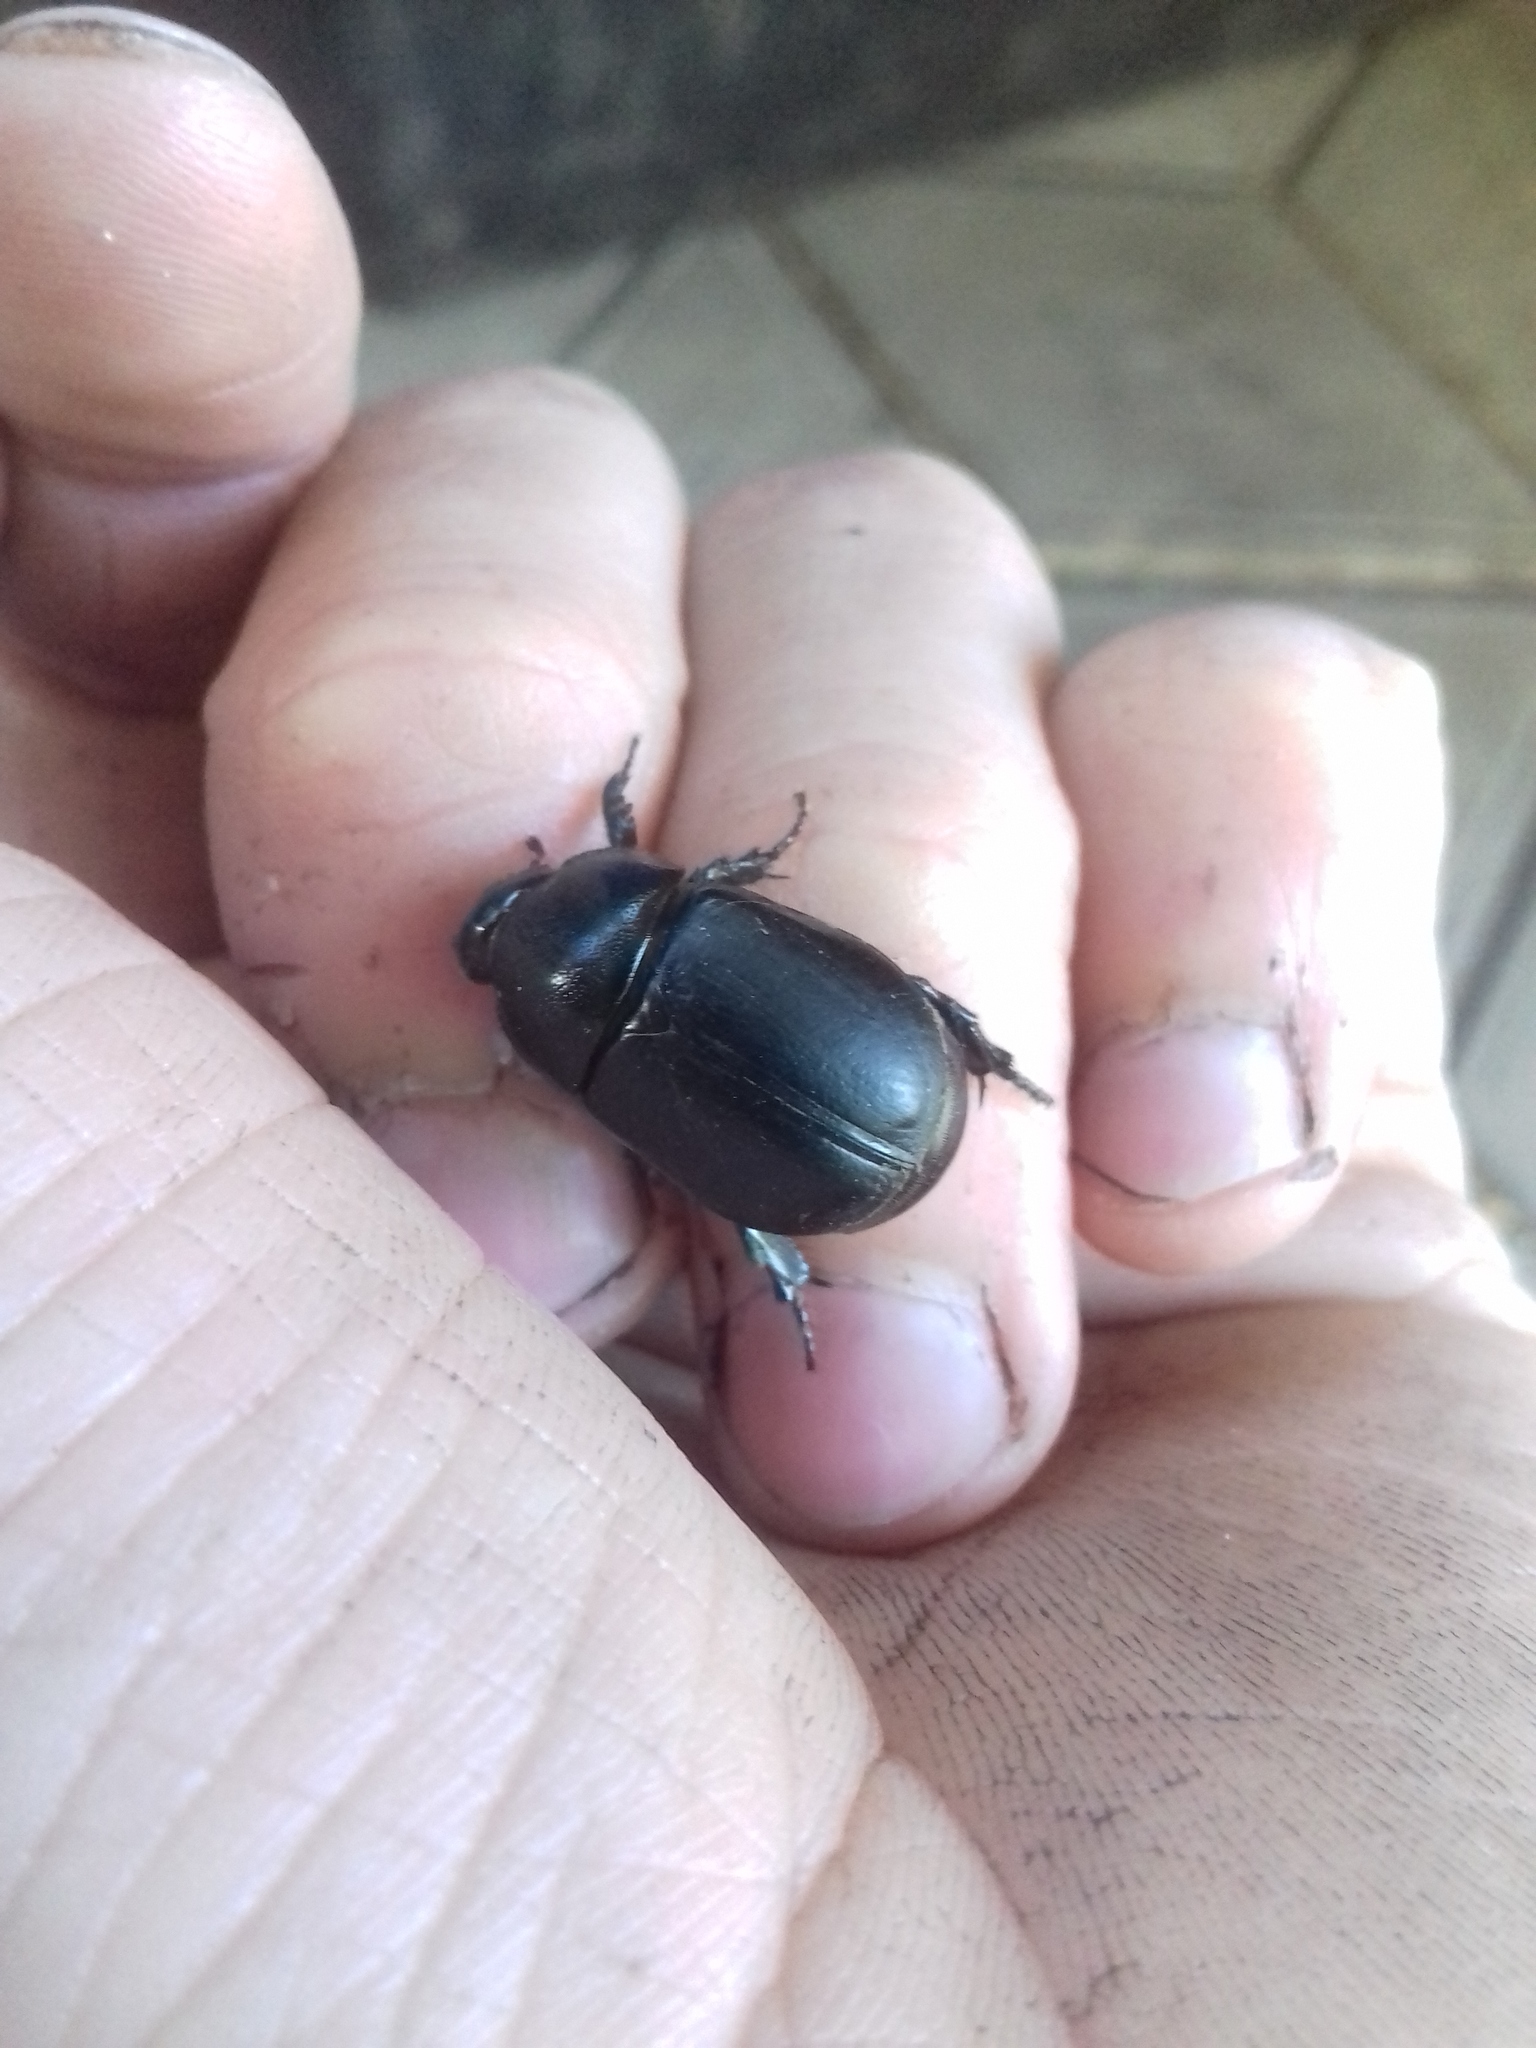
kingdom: Animalia
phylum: Arthropoda
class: Insecta
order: Coleoptera
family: Scarabaeidae
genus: Pentodon
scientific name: Pentodon idiota
